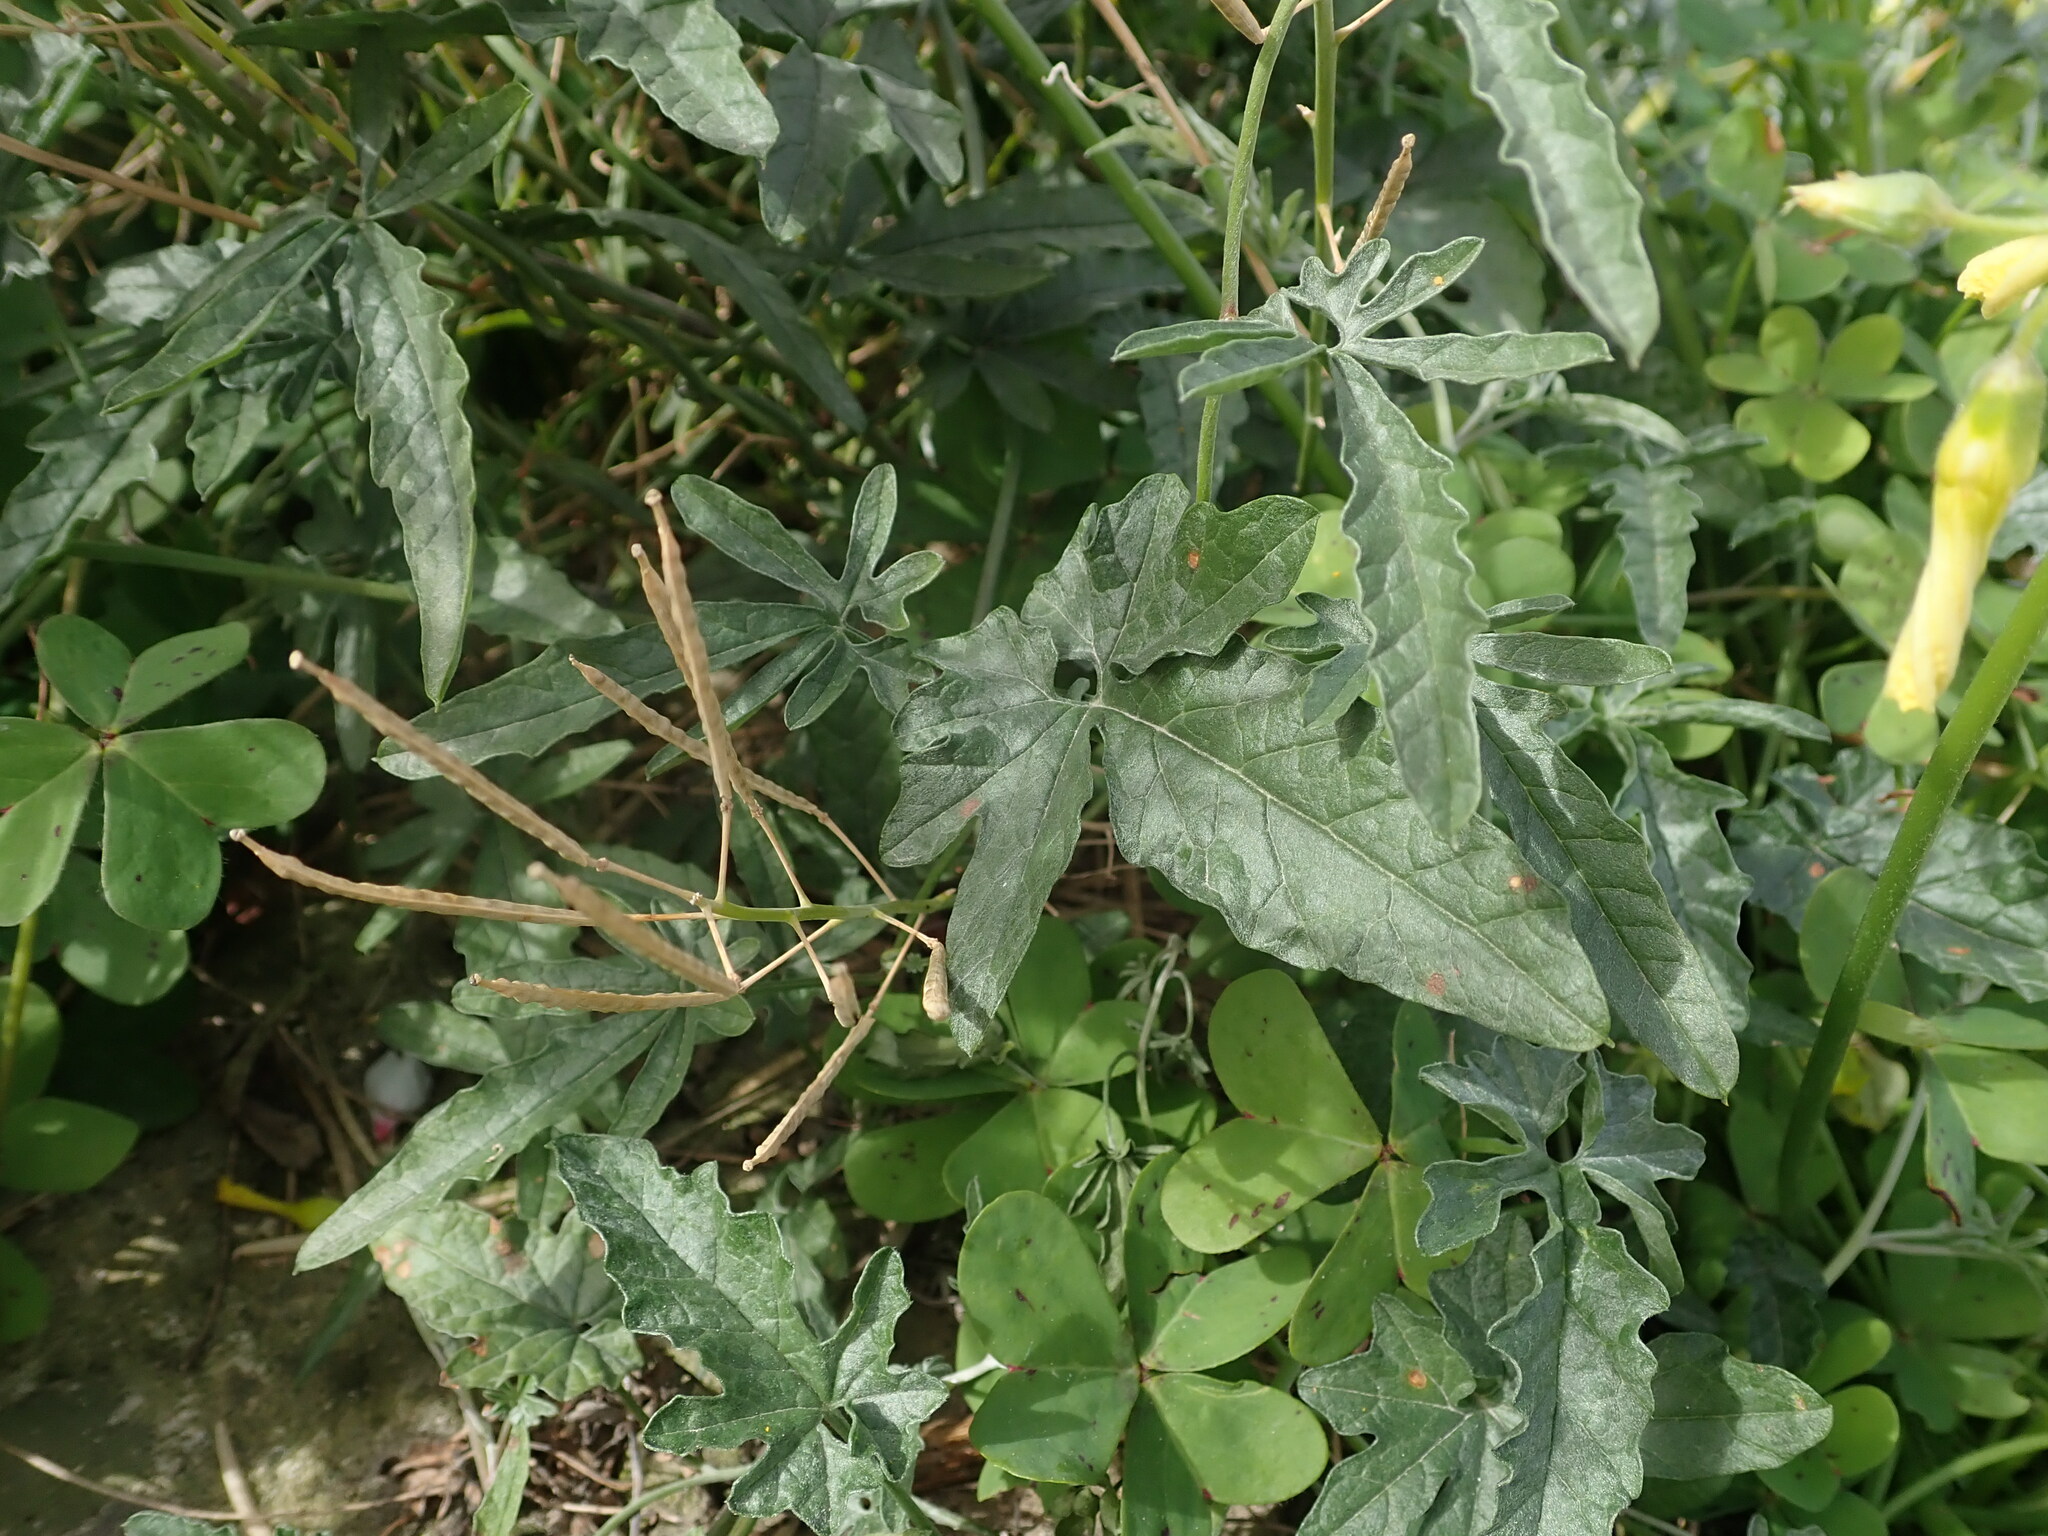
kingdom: Plantae
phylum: Tracheophyta
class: Magnoliopsida
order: Solanales
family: Convolvulaceae
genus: Convolvulus
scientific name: Convolvulus elegantissimus
